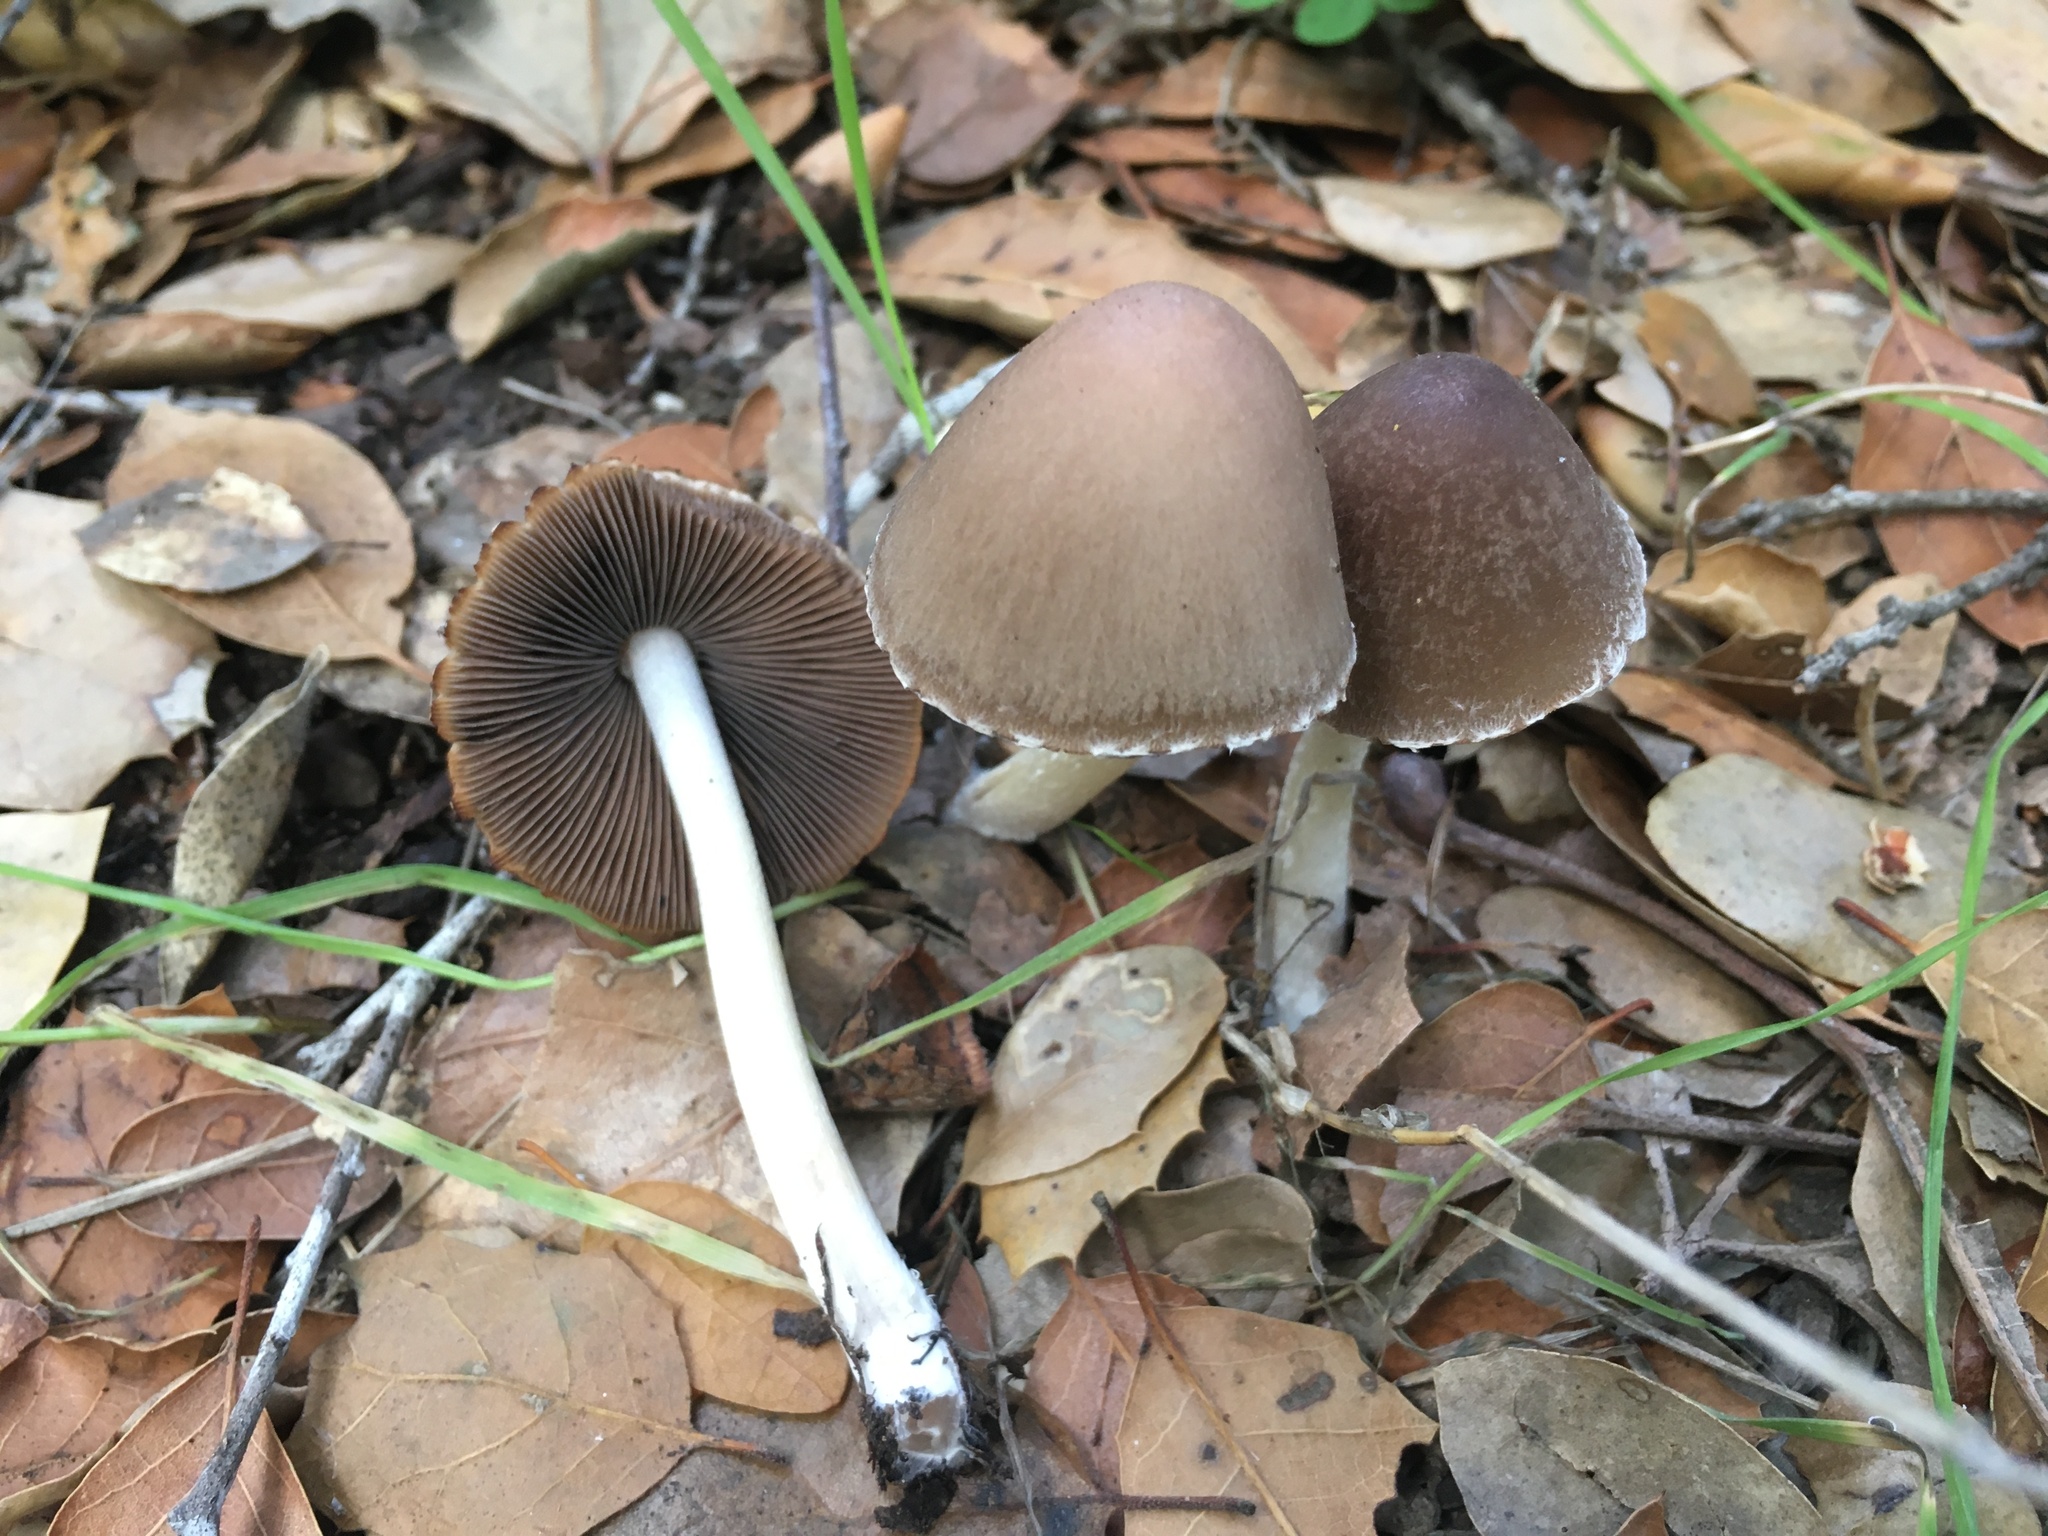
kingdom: Fungi
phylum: Basidiomycota
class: Agaricomycetes
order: Agaricales
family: Psathyrellaceae
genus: Psathyrella
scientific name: Psathyrella longipes
